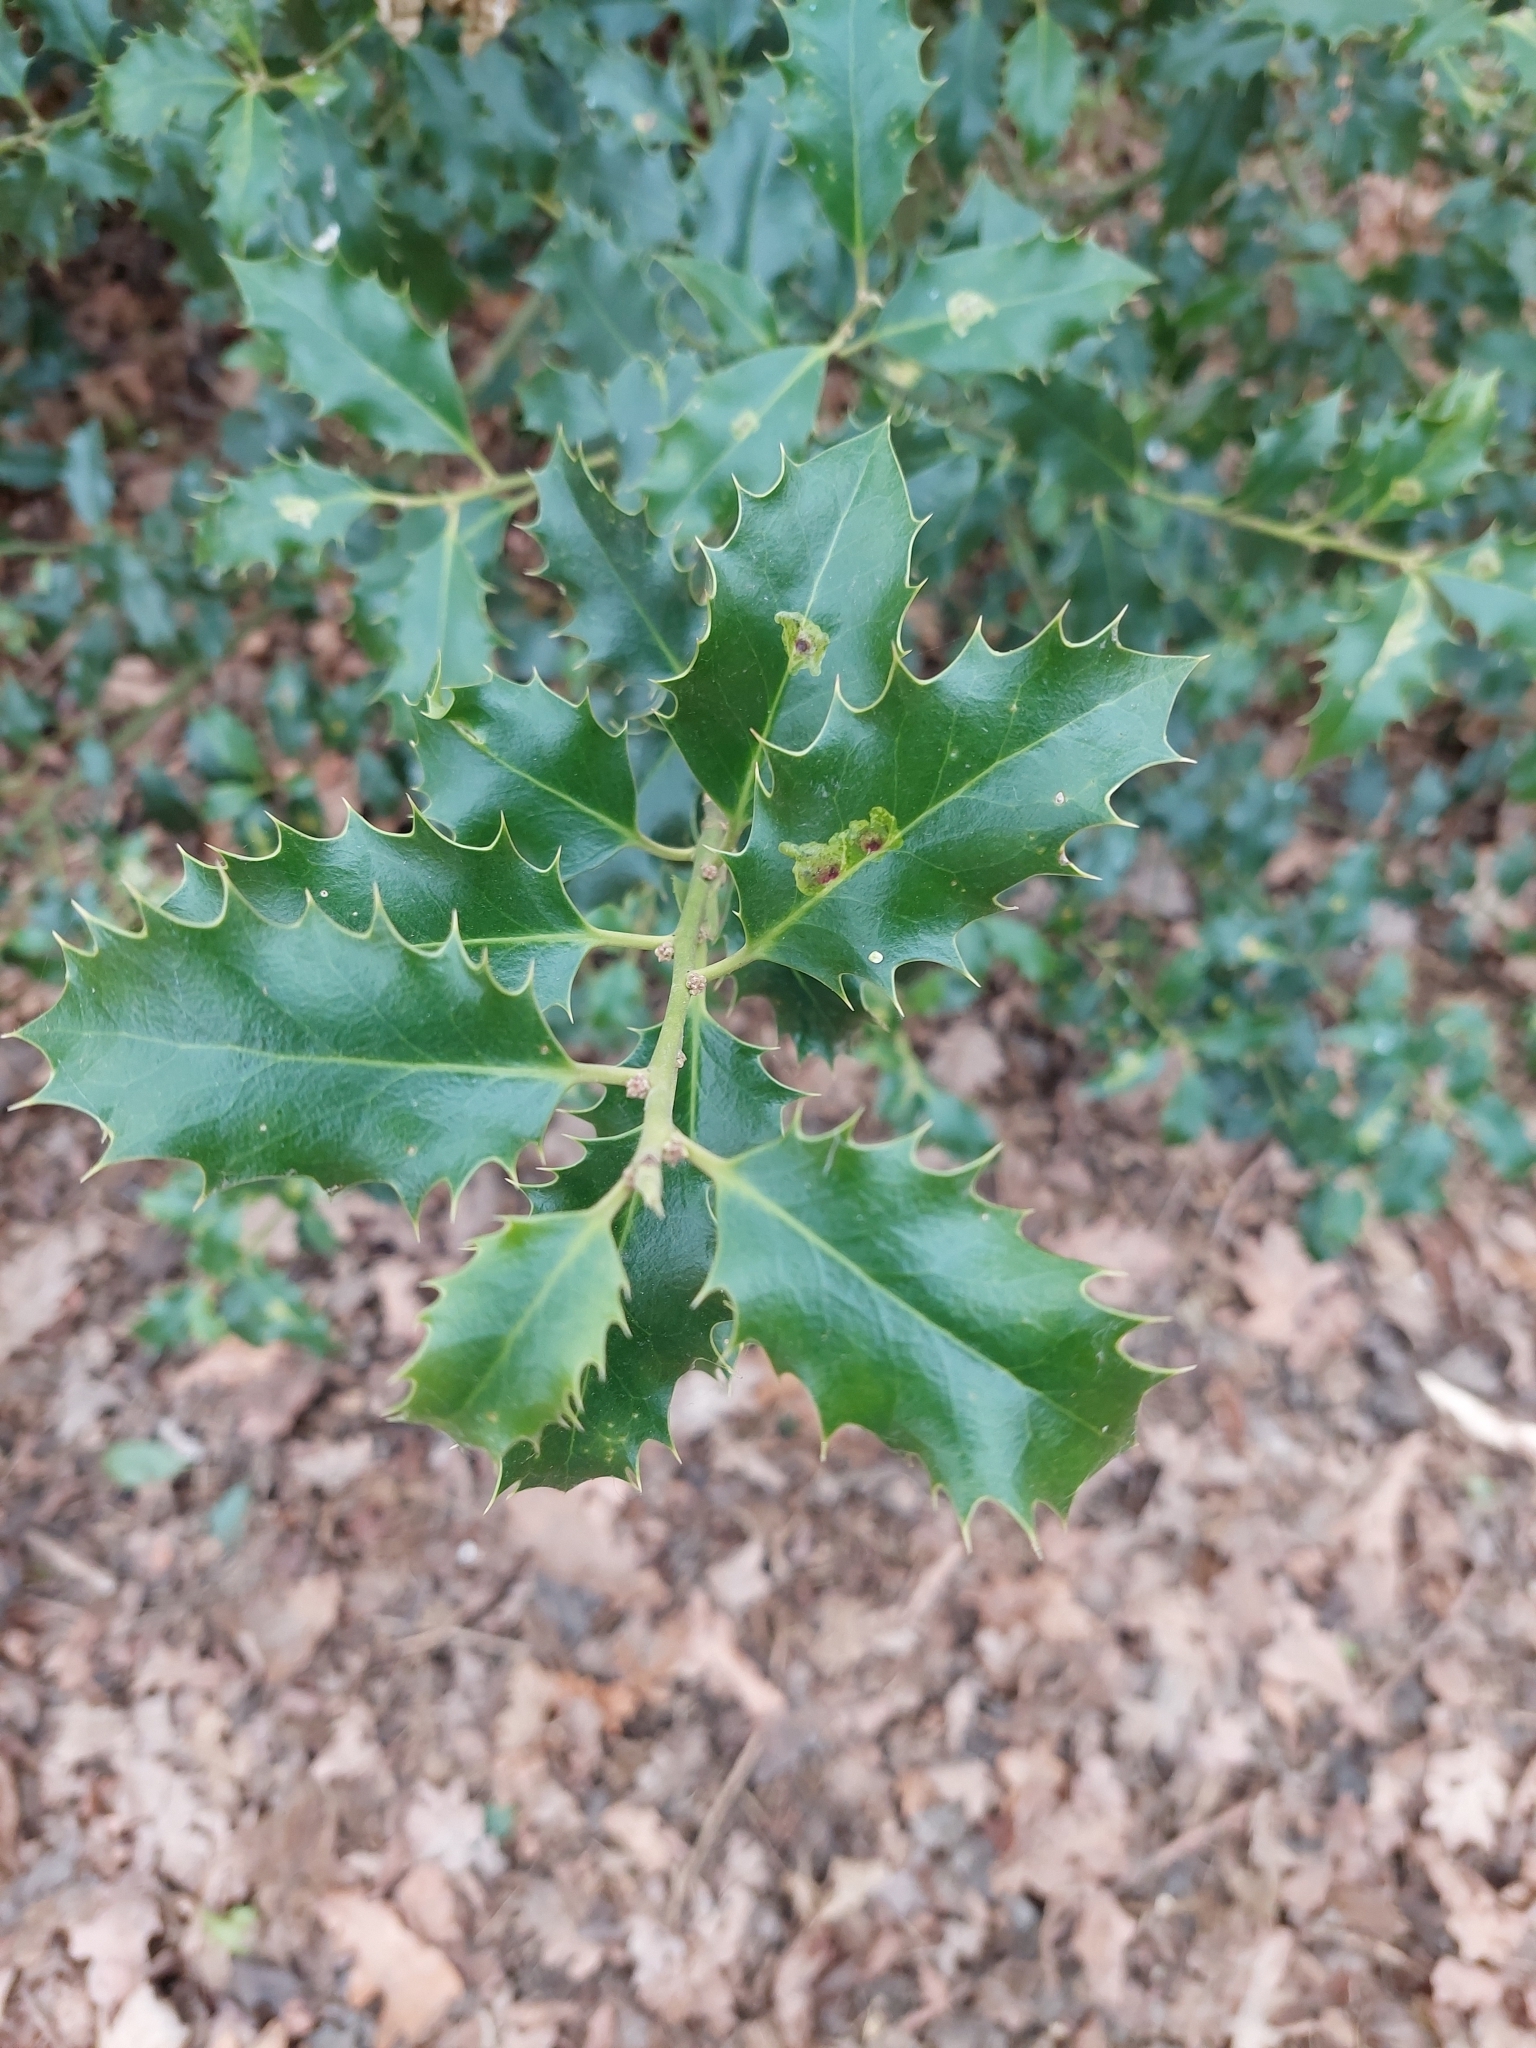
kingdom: Plantae
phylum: Tracheophyta
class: Magnoliopsida
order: Aquifoliales
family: Aquifoliaceae
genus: Ilex
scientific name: Ilex aquifolium
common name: English holly
